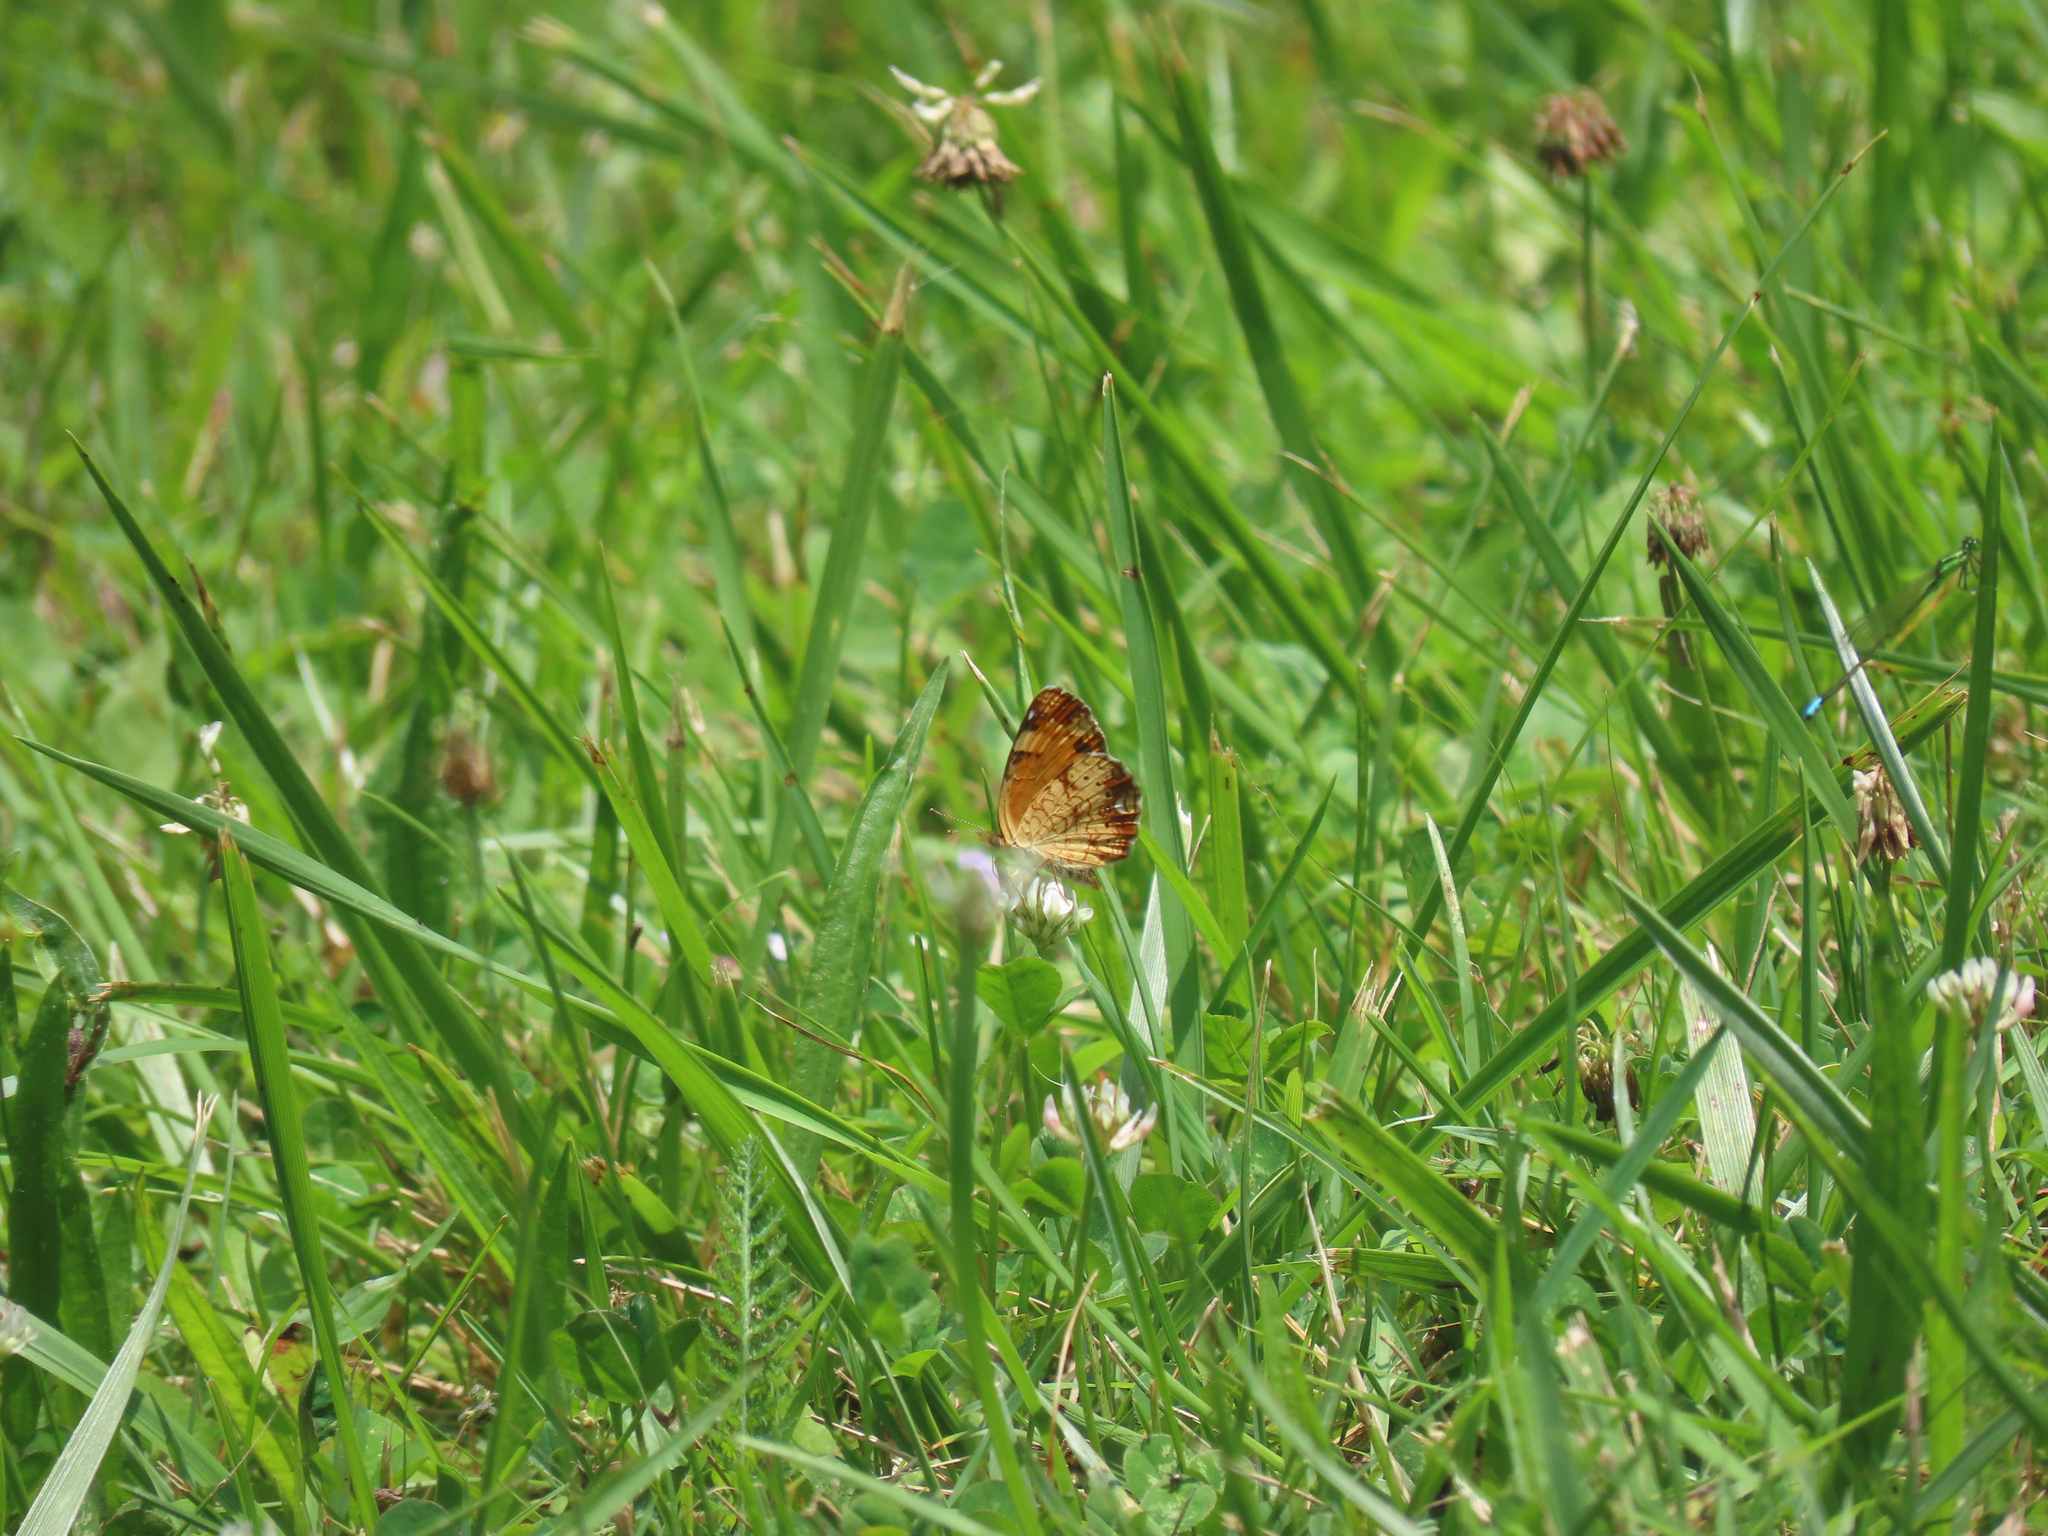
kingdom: Animalia
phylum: Arthropoda
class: Insecta
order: Lepidoptera
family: Nymphalidae
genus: Phyciodes
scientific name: Phyciodes tharos
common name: Pearl crescent
